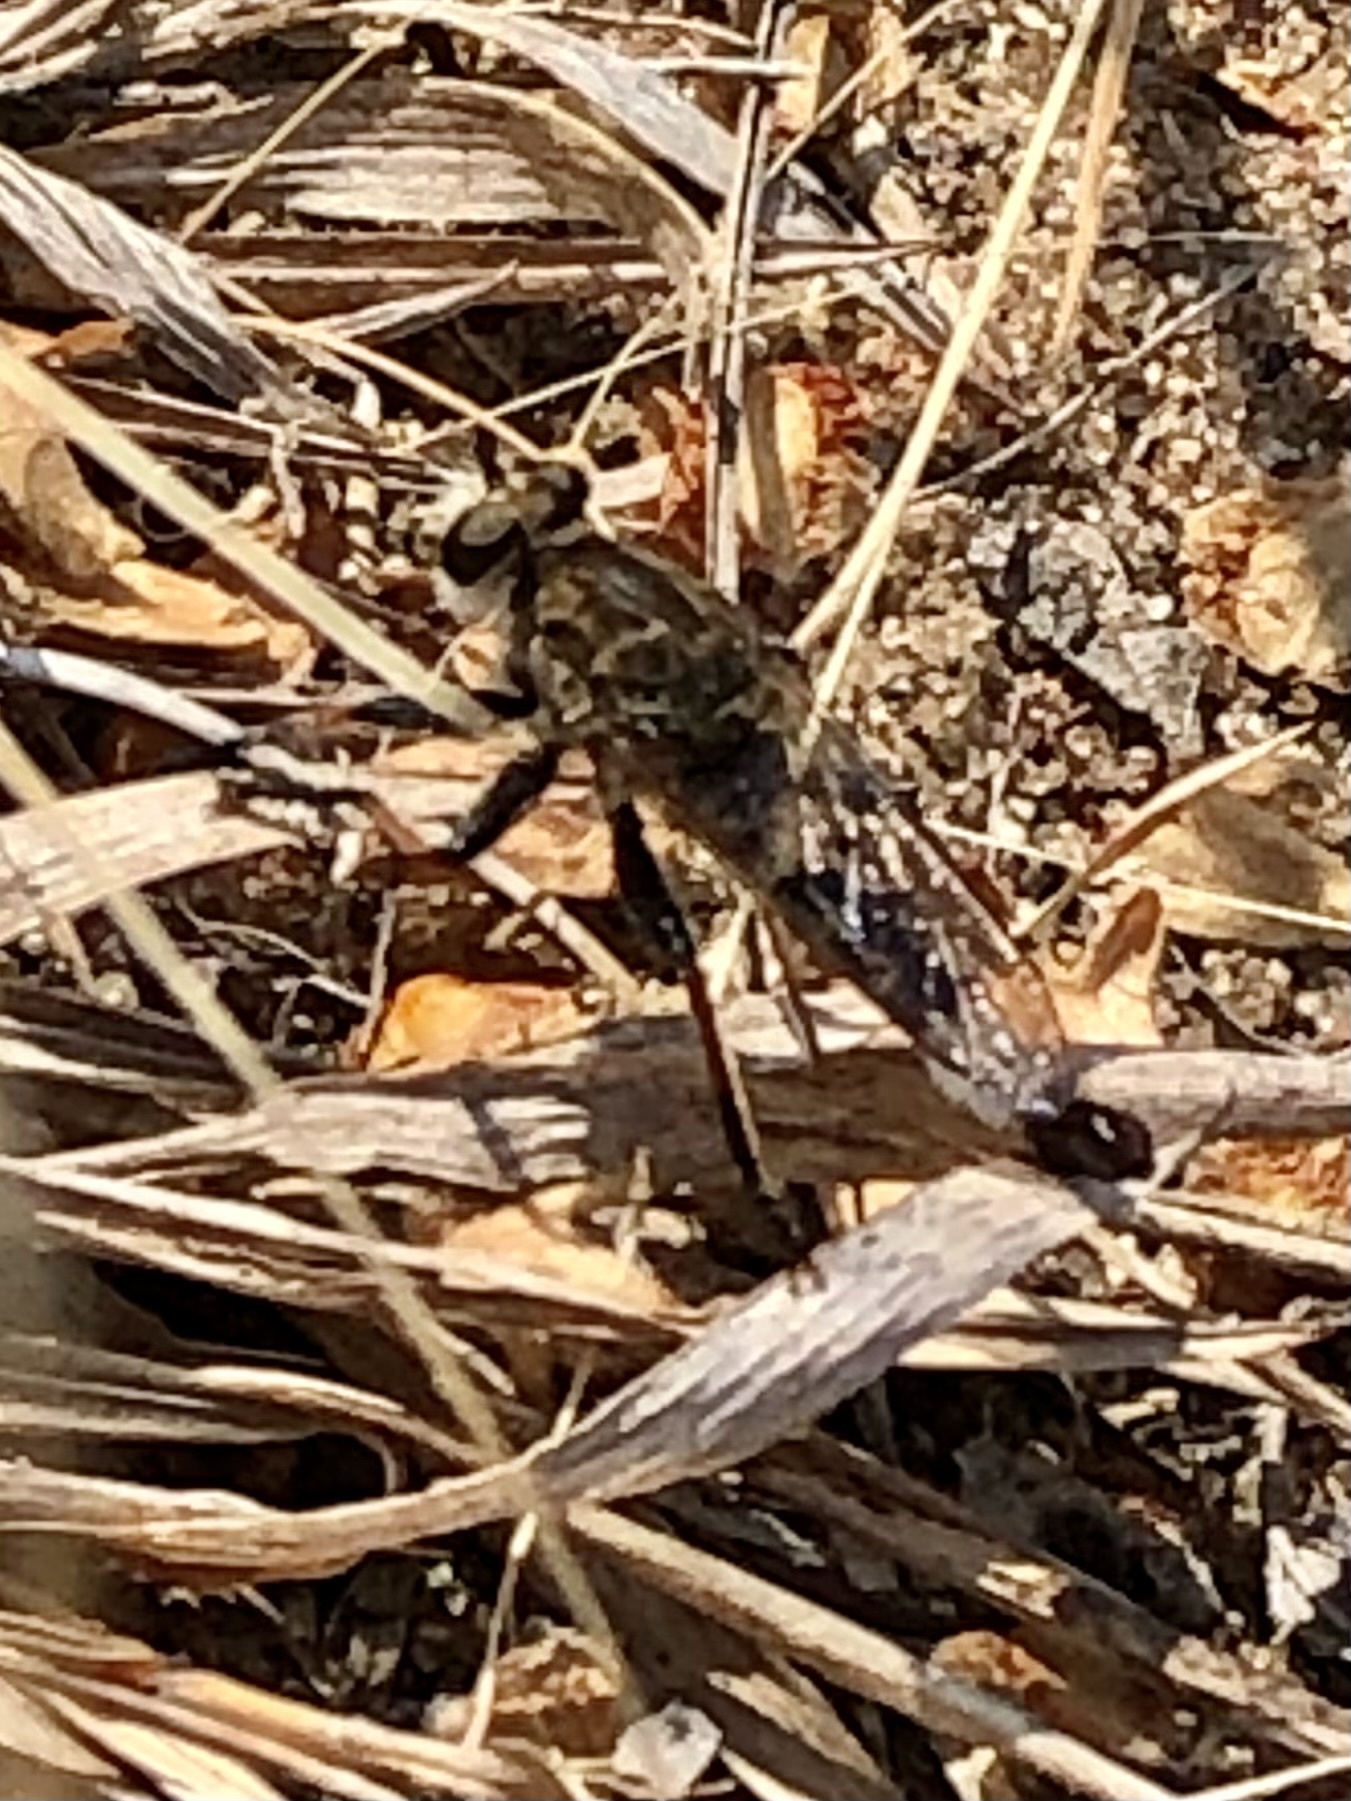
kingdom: Animalia
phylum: Arthropoda
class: Insecta
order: Diptera
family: Asilidae
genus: Efferia
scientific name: Efferia albibarbis
